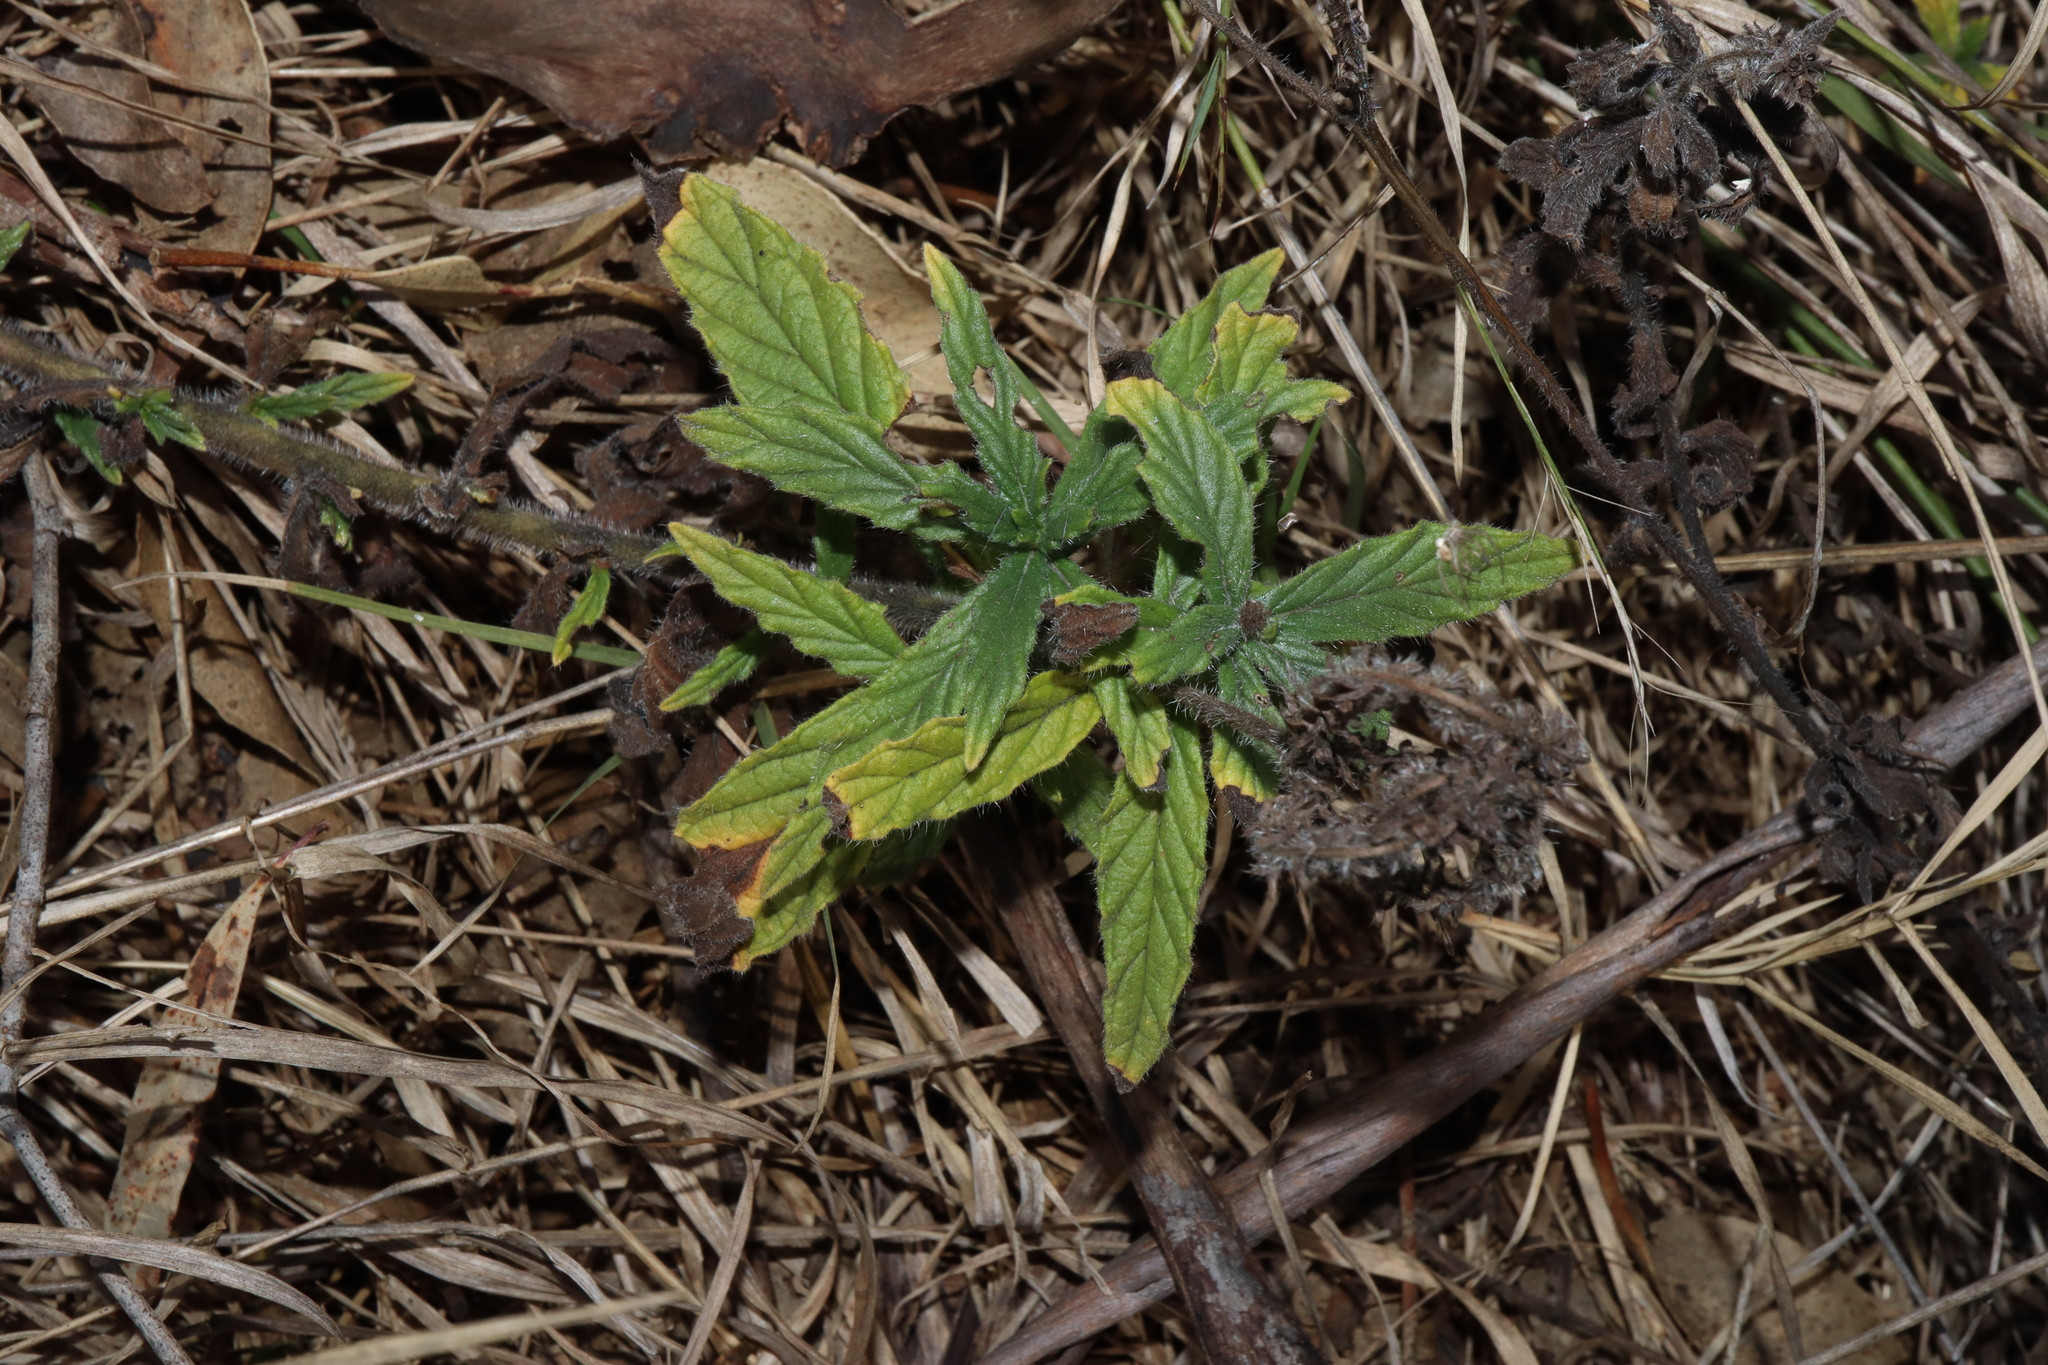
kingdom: Plantae
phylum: Tracheophyta
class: Magnoliopsida
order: Boraginales
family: Heliotropiaceae
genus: Heliotropium
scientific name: Heliotropium amplexicaule
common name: Clasping heliotrope
